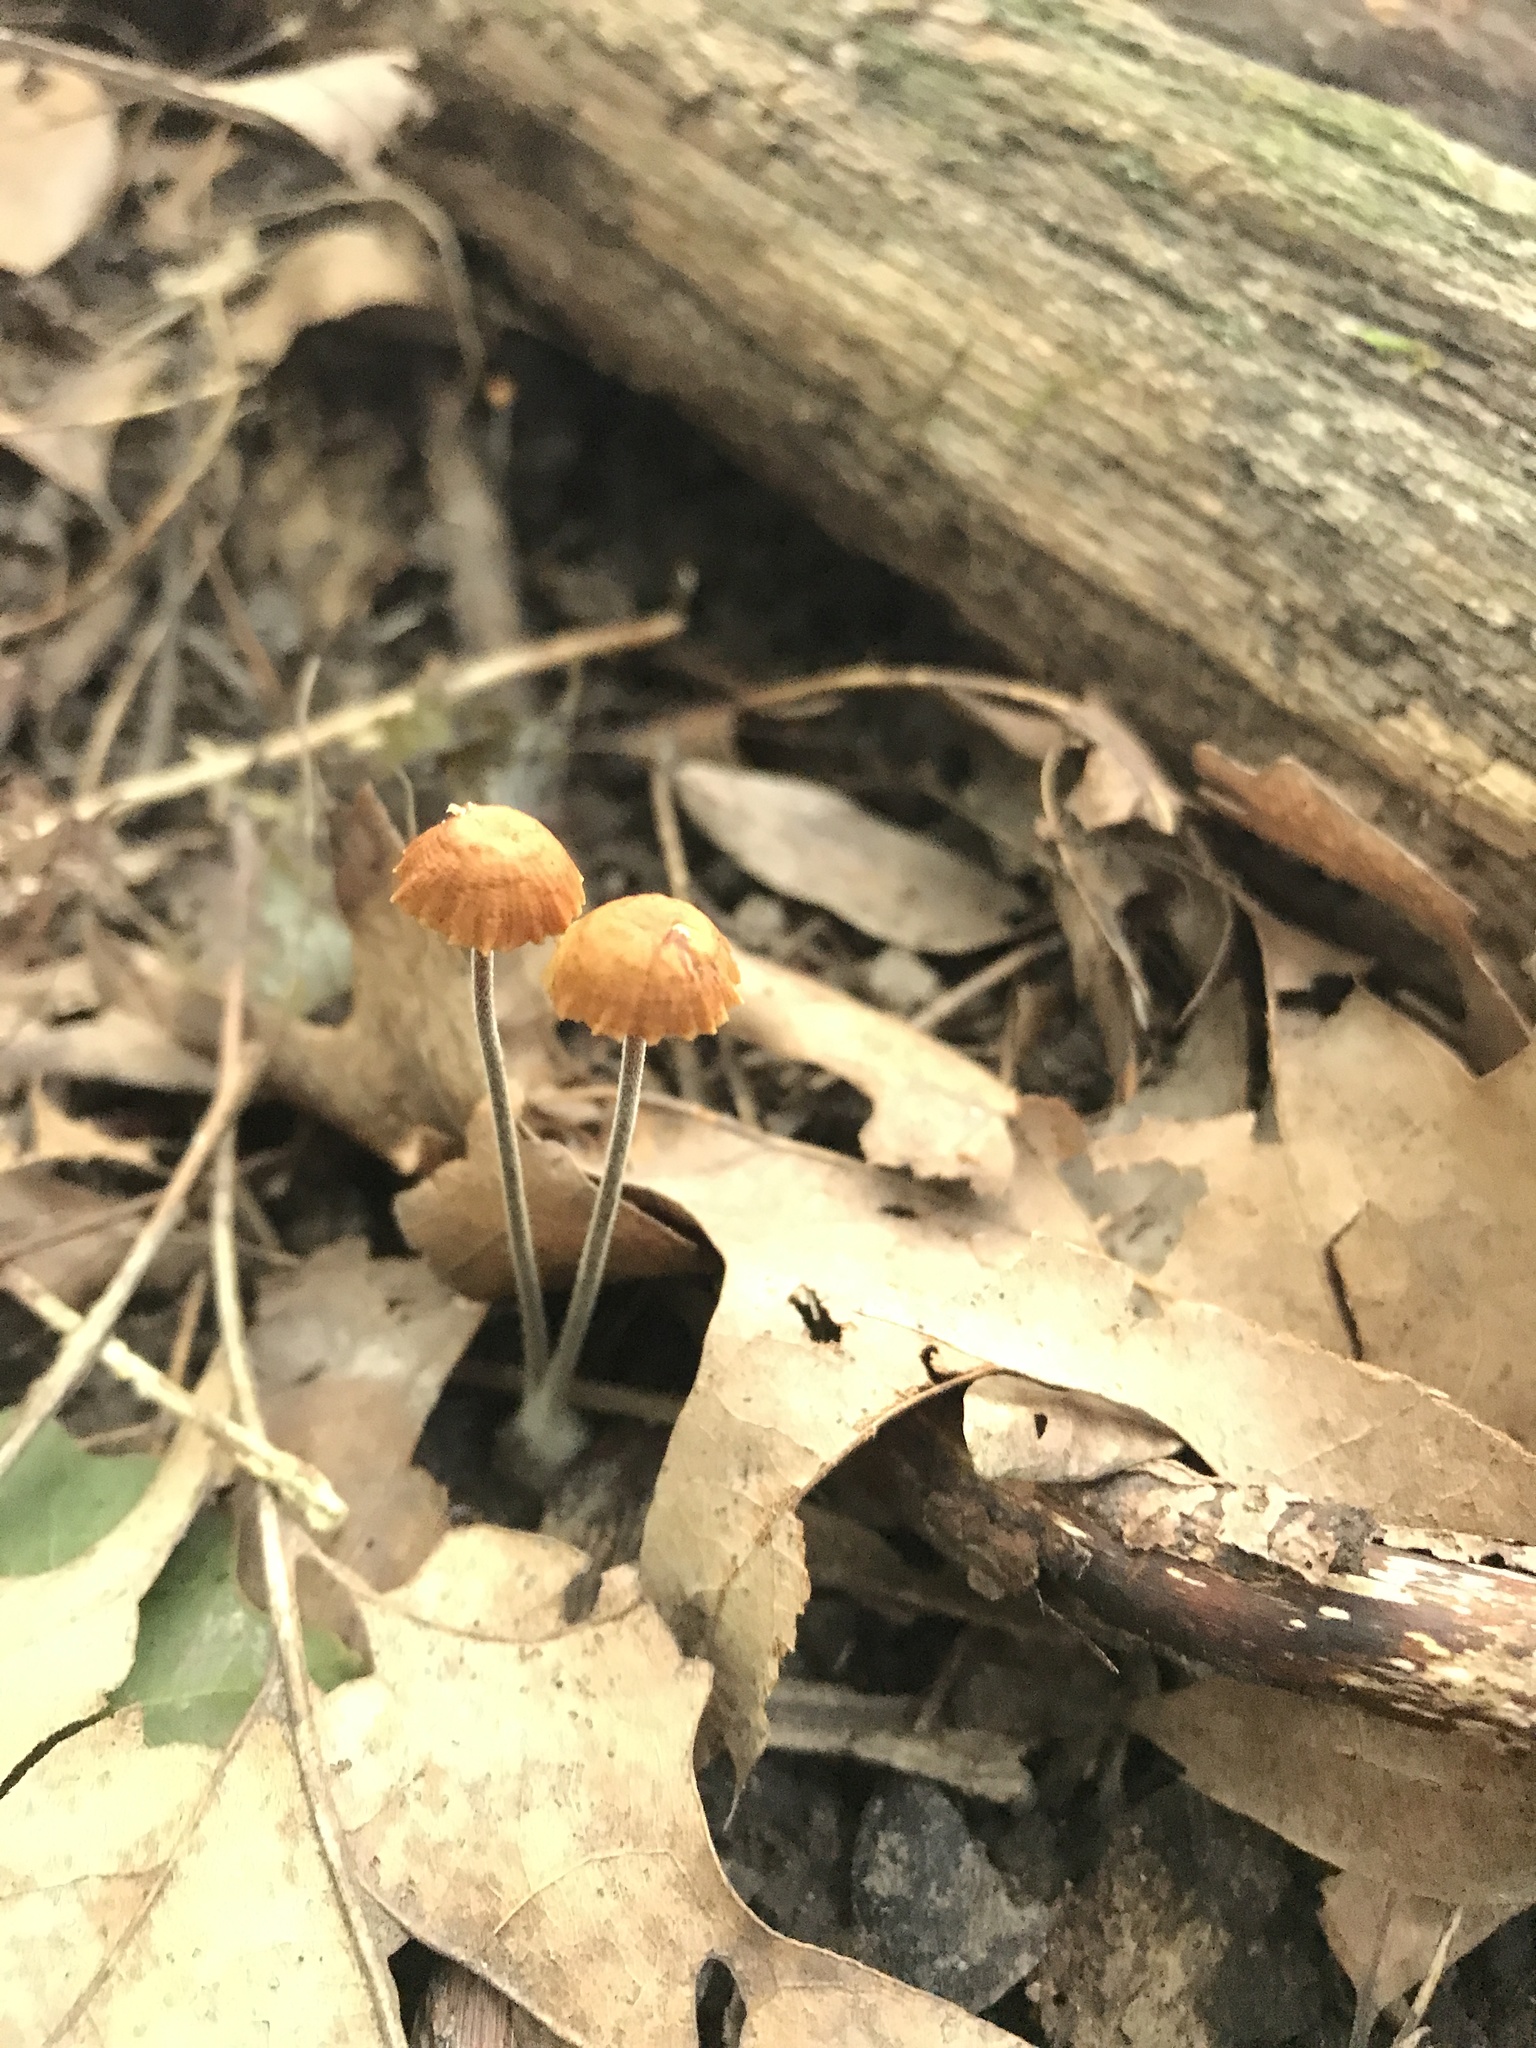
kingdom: Fungi
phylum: Basidiomycota
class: Agaricomycetes
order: Agaricales
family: Physalacriaceae
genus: Rhizomarasmius
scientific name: Rhizomarasmius pyrrhocephalus
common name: Hairy long stem marasmius
